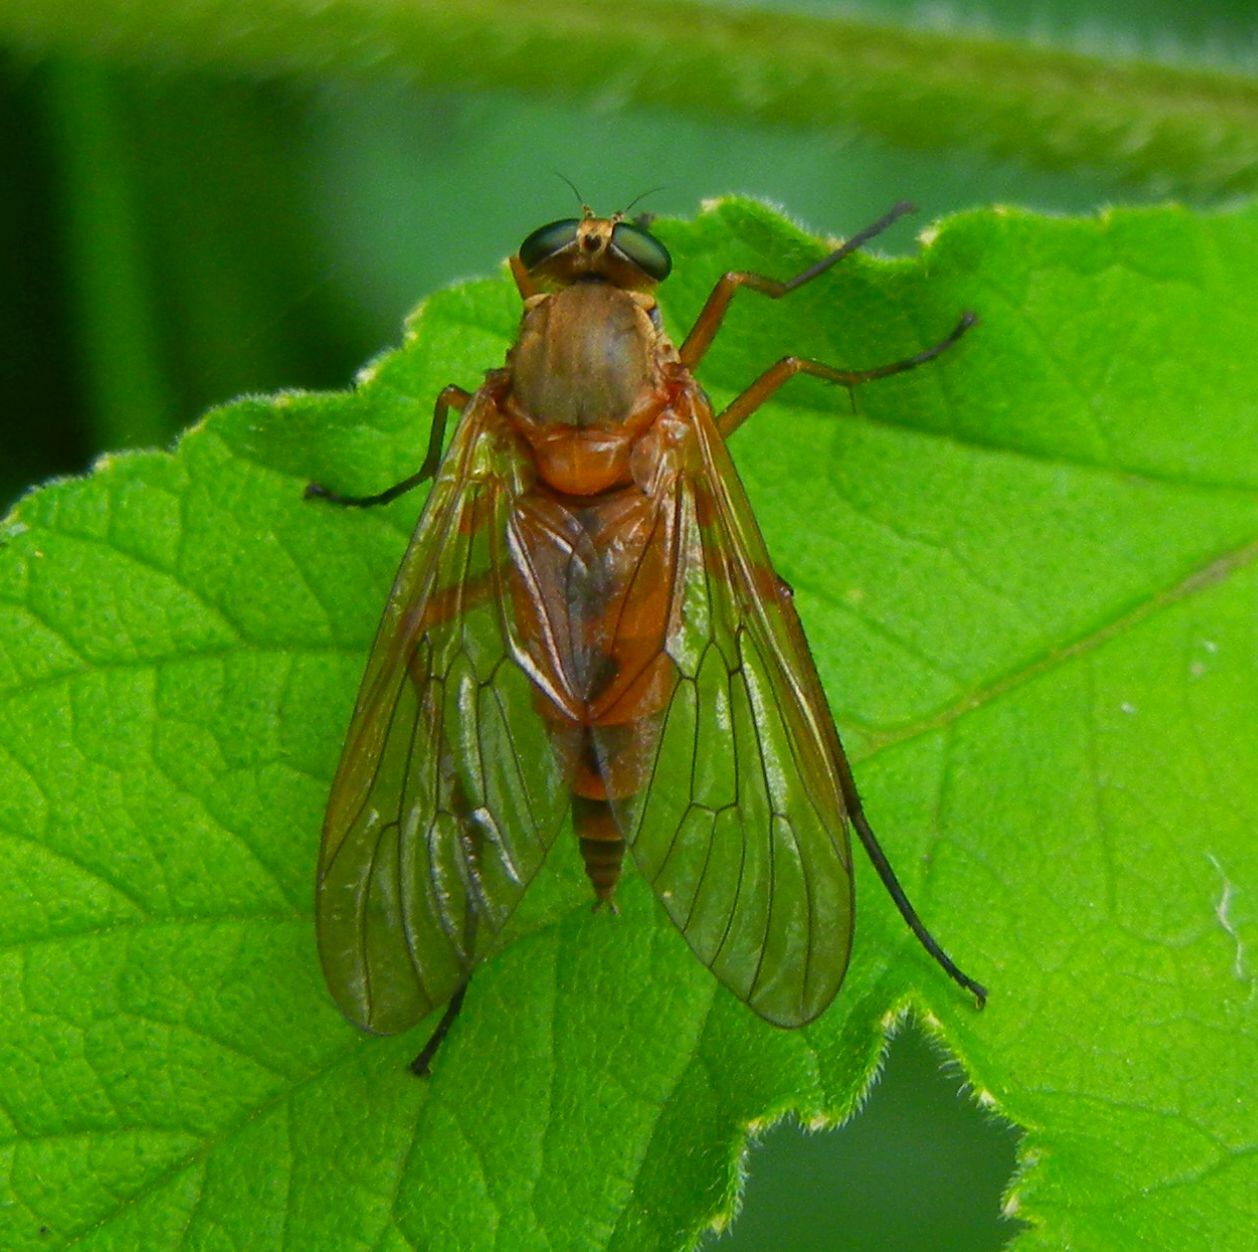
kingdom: Animalia
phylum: Arthropoda
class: Insecta
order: Diptera
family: Rhagionidae
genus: Rhagio
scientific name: Rhagio tringaria
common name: Marsh snipefly
